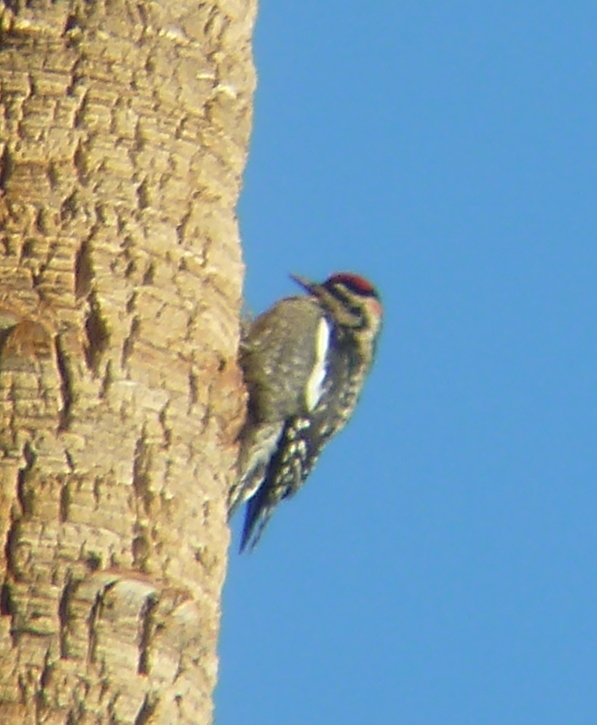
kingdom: Animalia
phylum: Chordata
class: Aves
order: Piciformes
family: Picidae
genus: Sphyrapicus
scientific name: Sphyrapicus varius
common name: Yellow-bellied sapsucker
